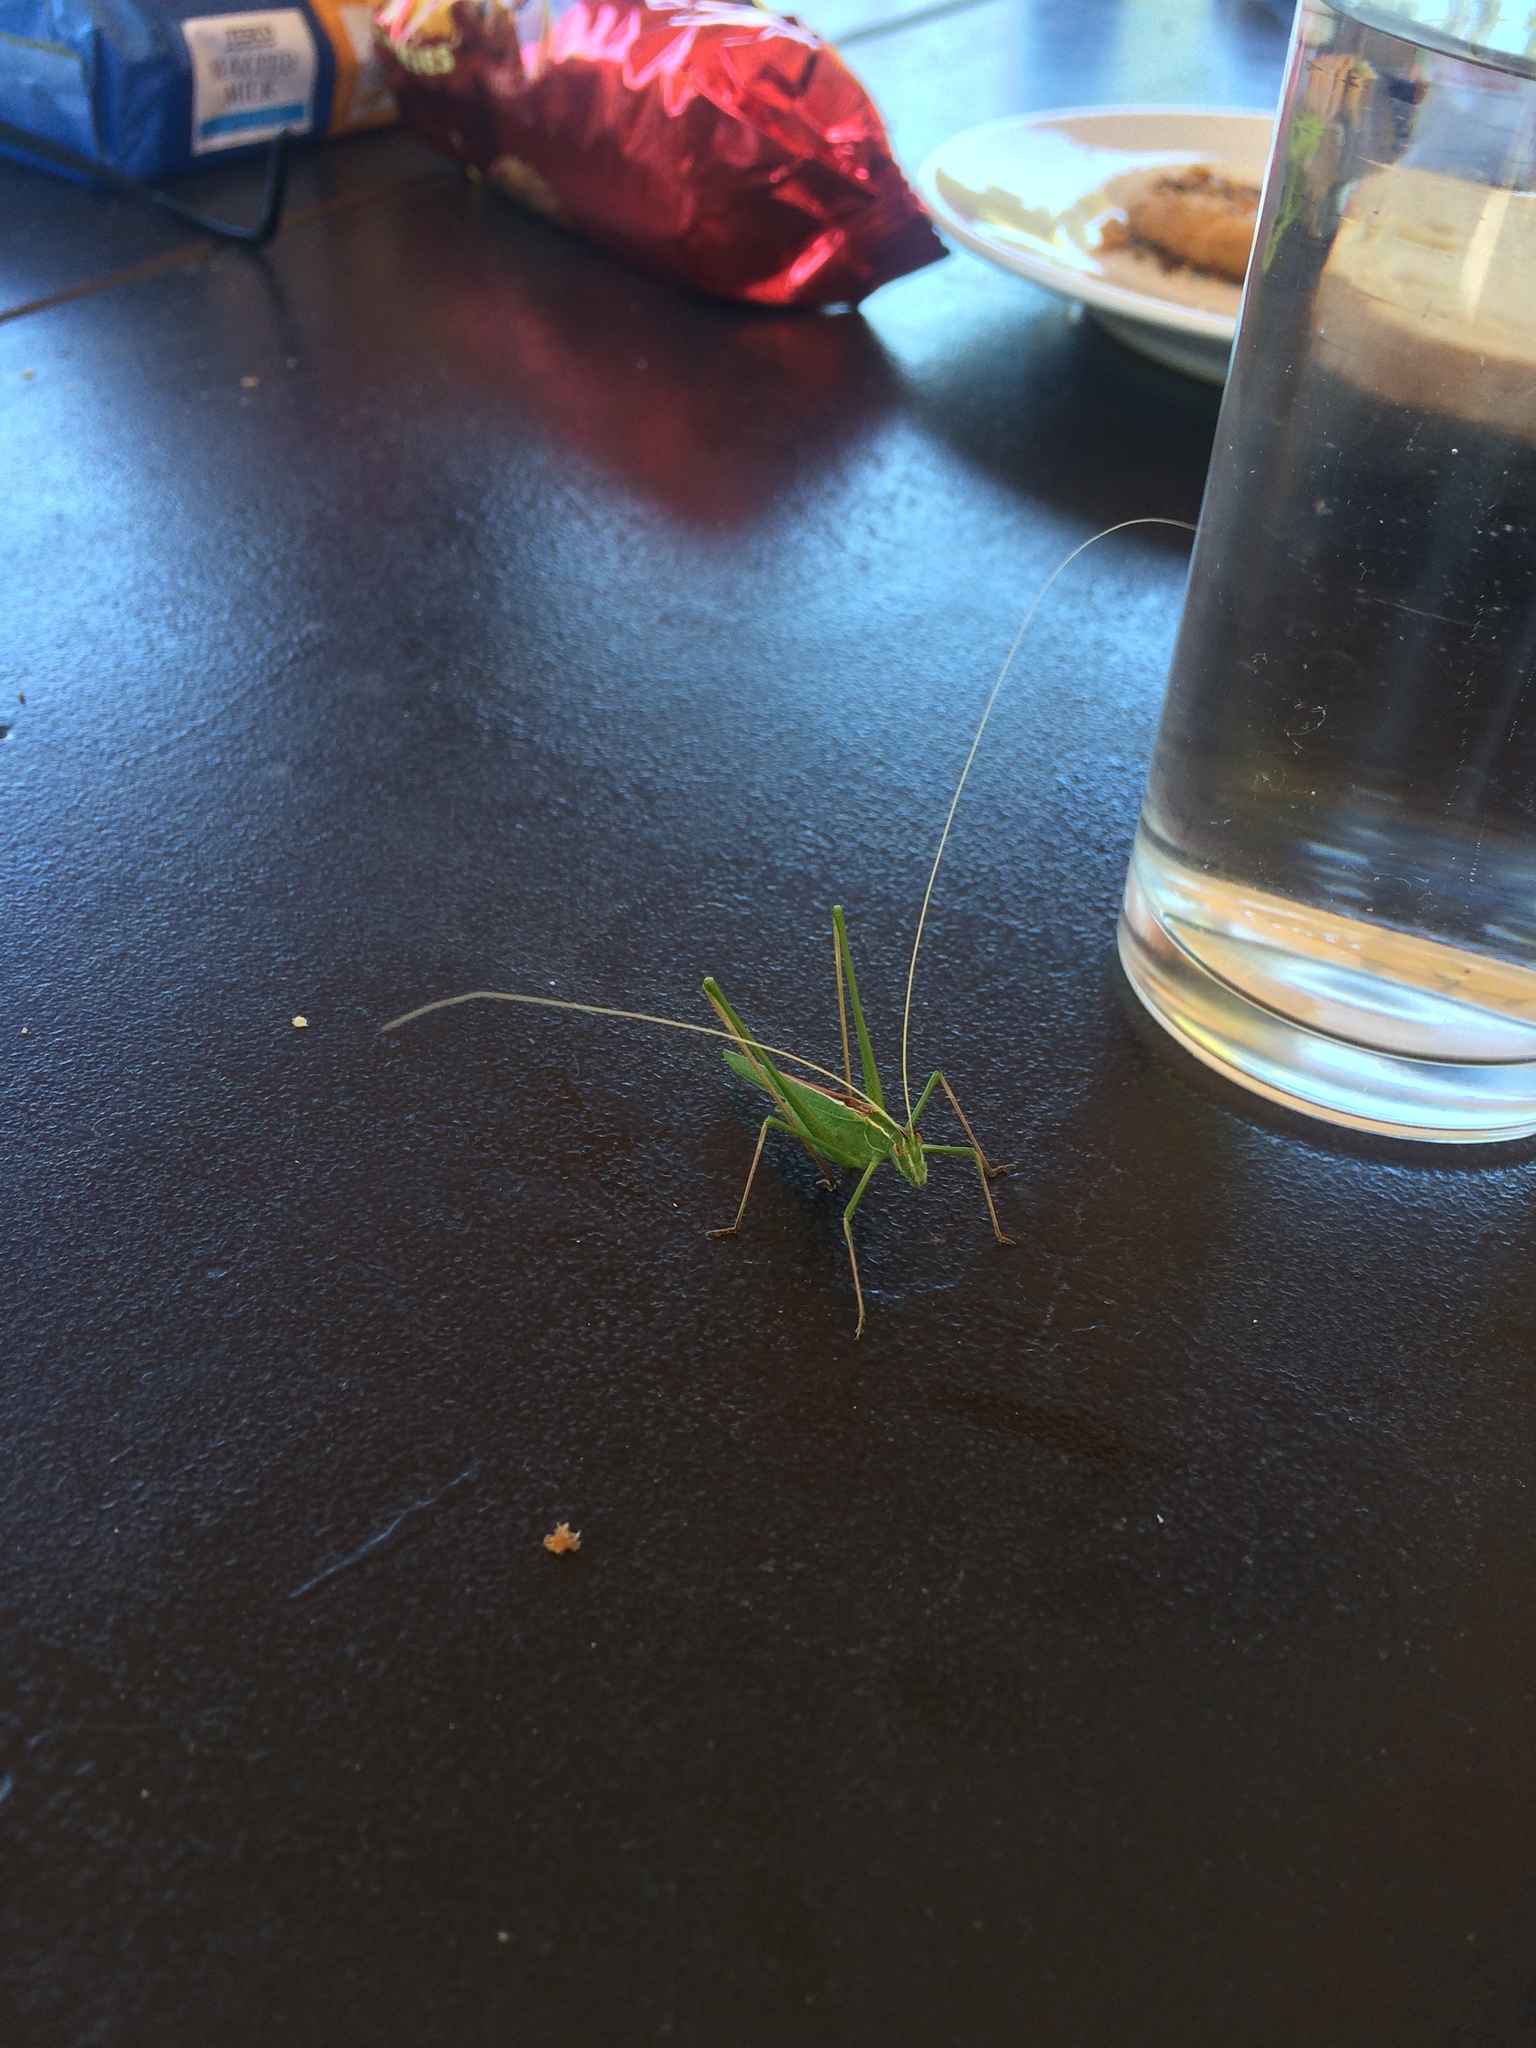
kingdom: Animalia
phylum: Arthropoda
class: Insecta
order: Orthoptera
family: Tettigoniidae
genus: Tylopsis
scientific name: Tylopsis lilifolia
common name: Lily bush-cricket
